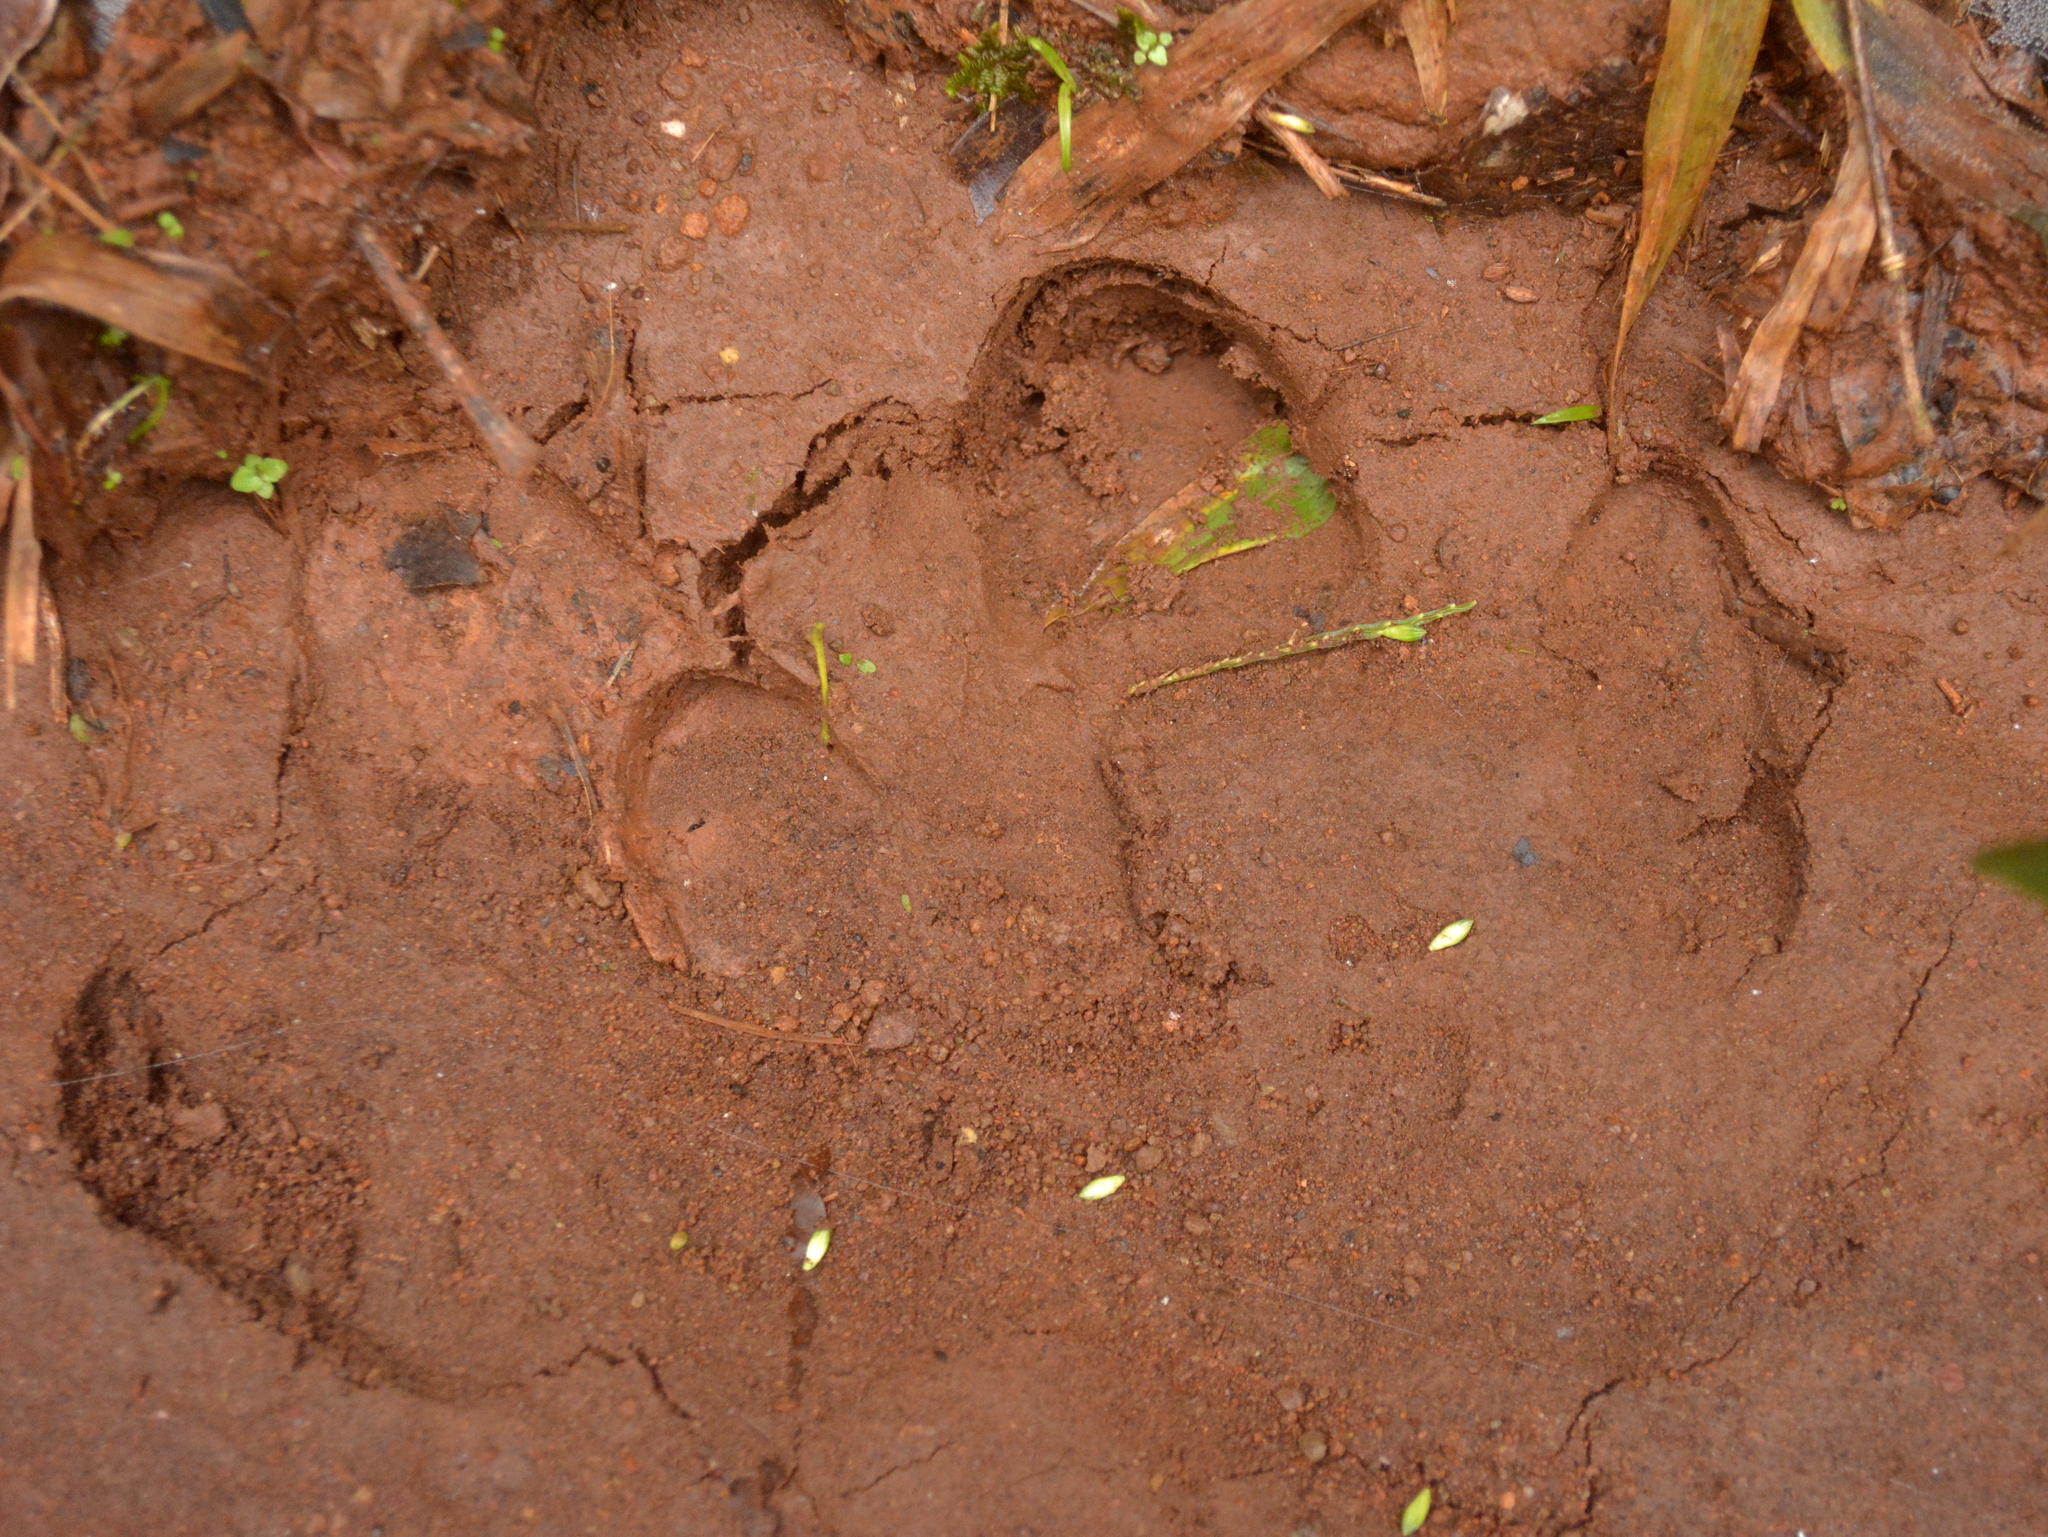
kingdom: Animalia
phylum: Chordata
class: Mammalia
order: Perissodactyla
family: Tapiridae
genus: Tapirus
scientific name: Tapirus terrestris
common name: Brazilian tapir
